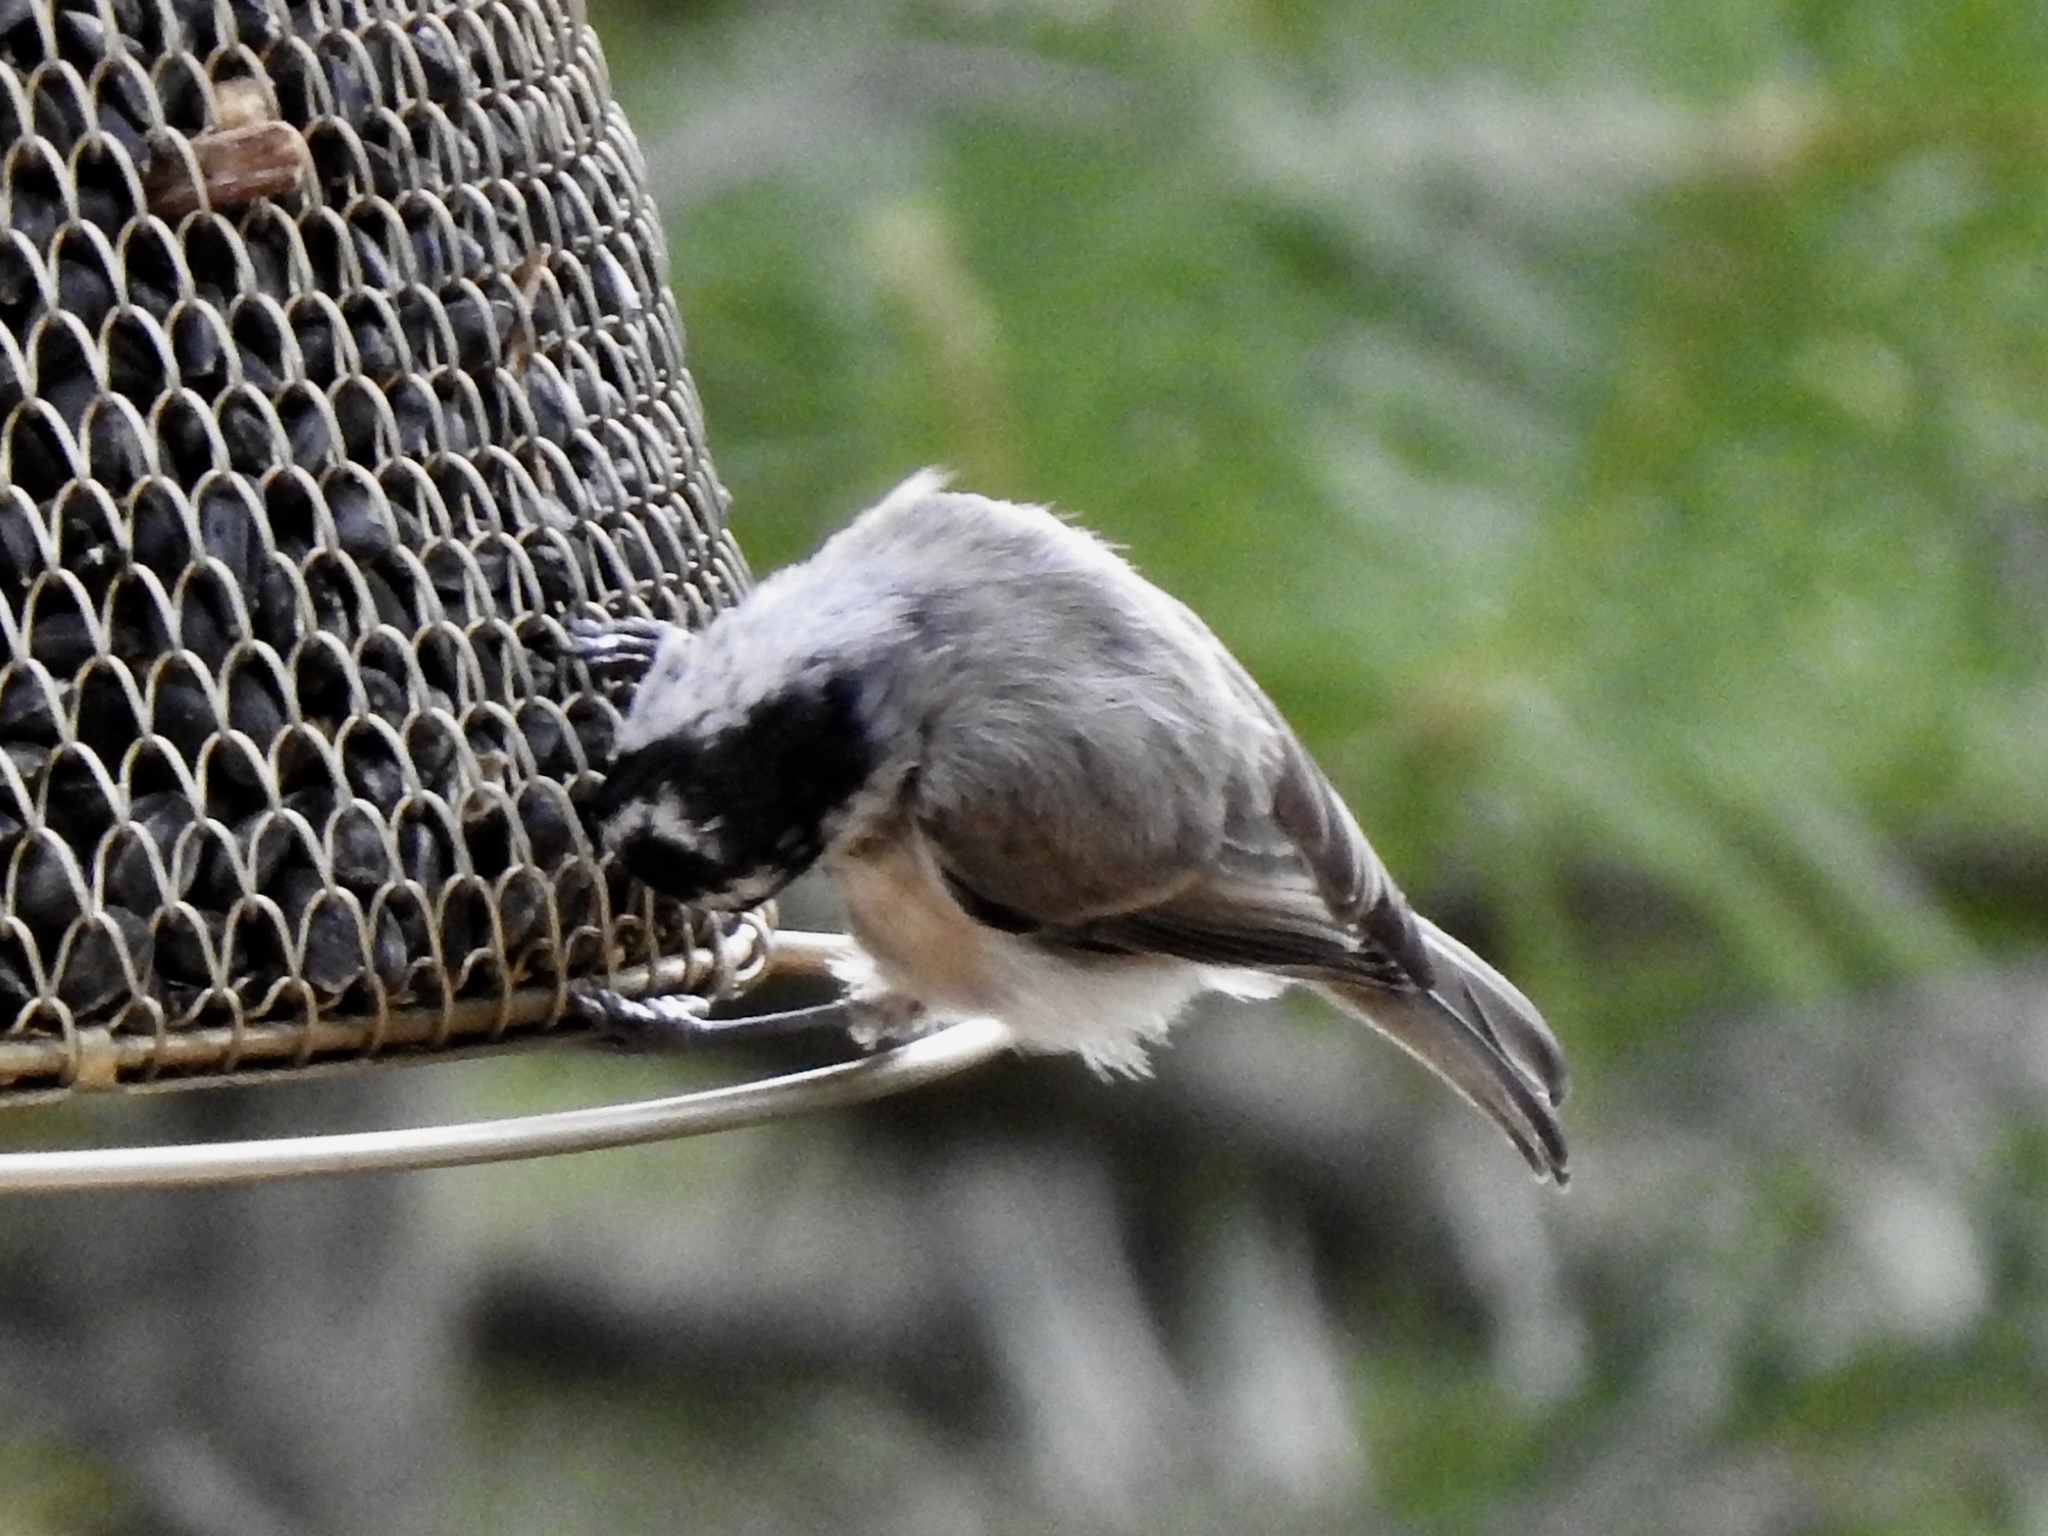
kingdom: Animalia
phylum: Chordata
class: Aves
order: Passeriformes
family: Paridae
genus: Poecile
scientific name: Poecile gambeli
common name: Mountain chickadee
